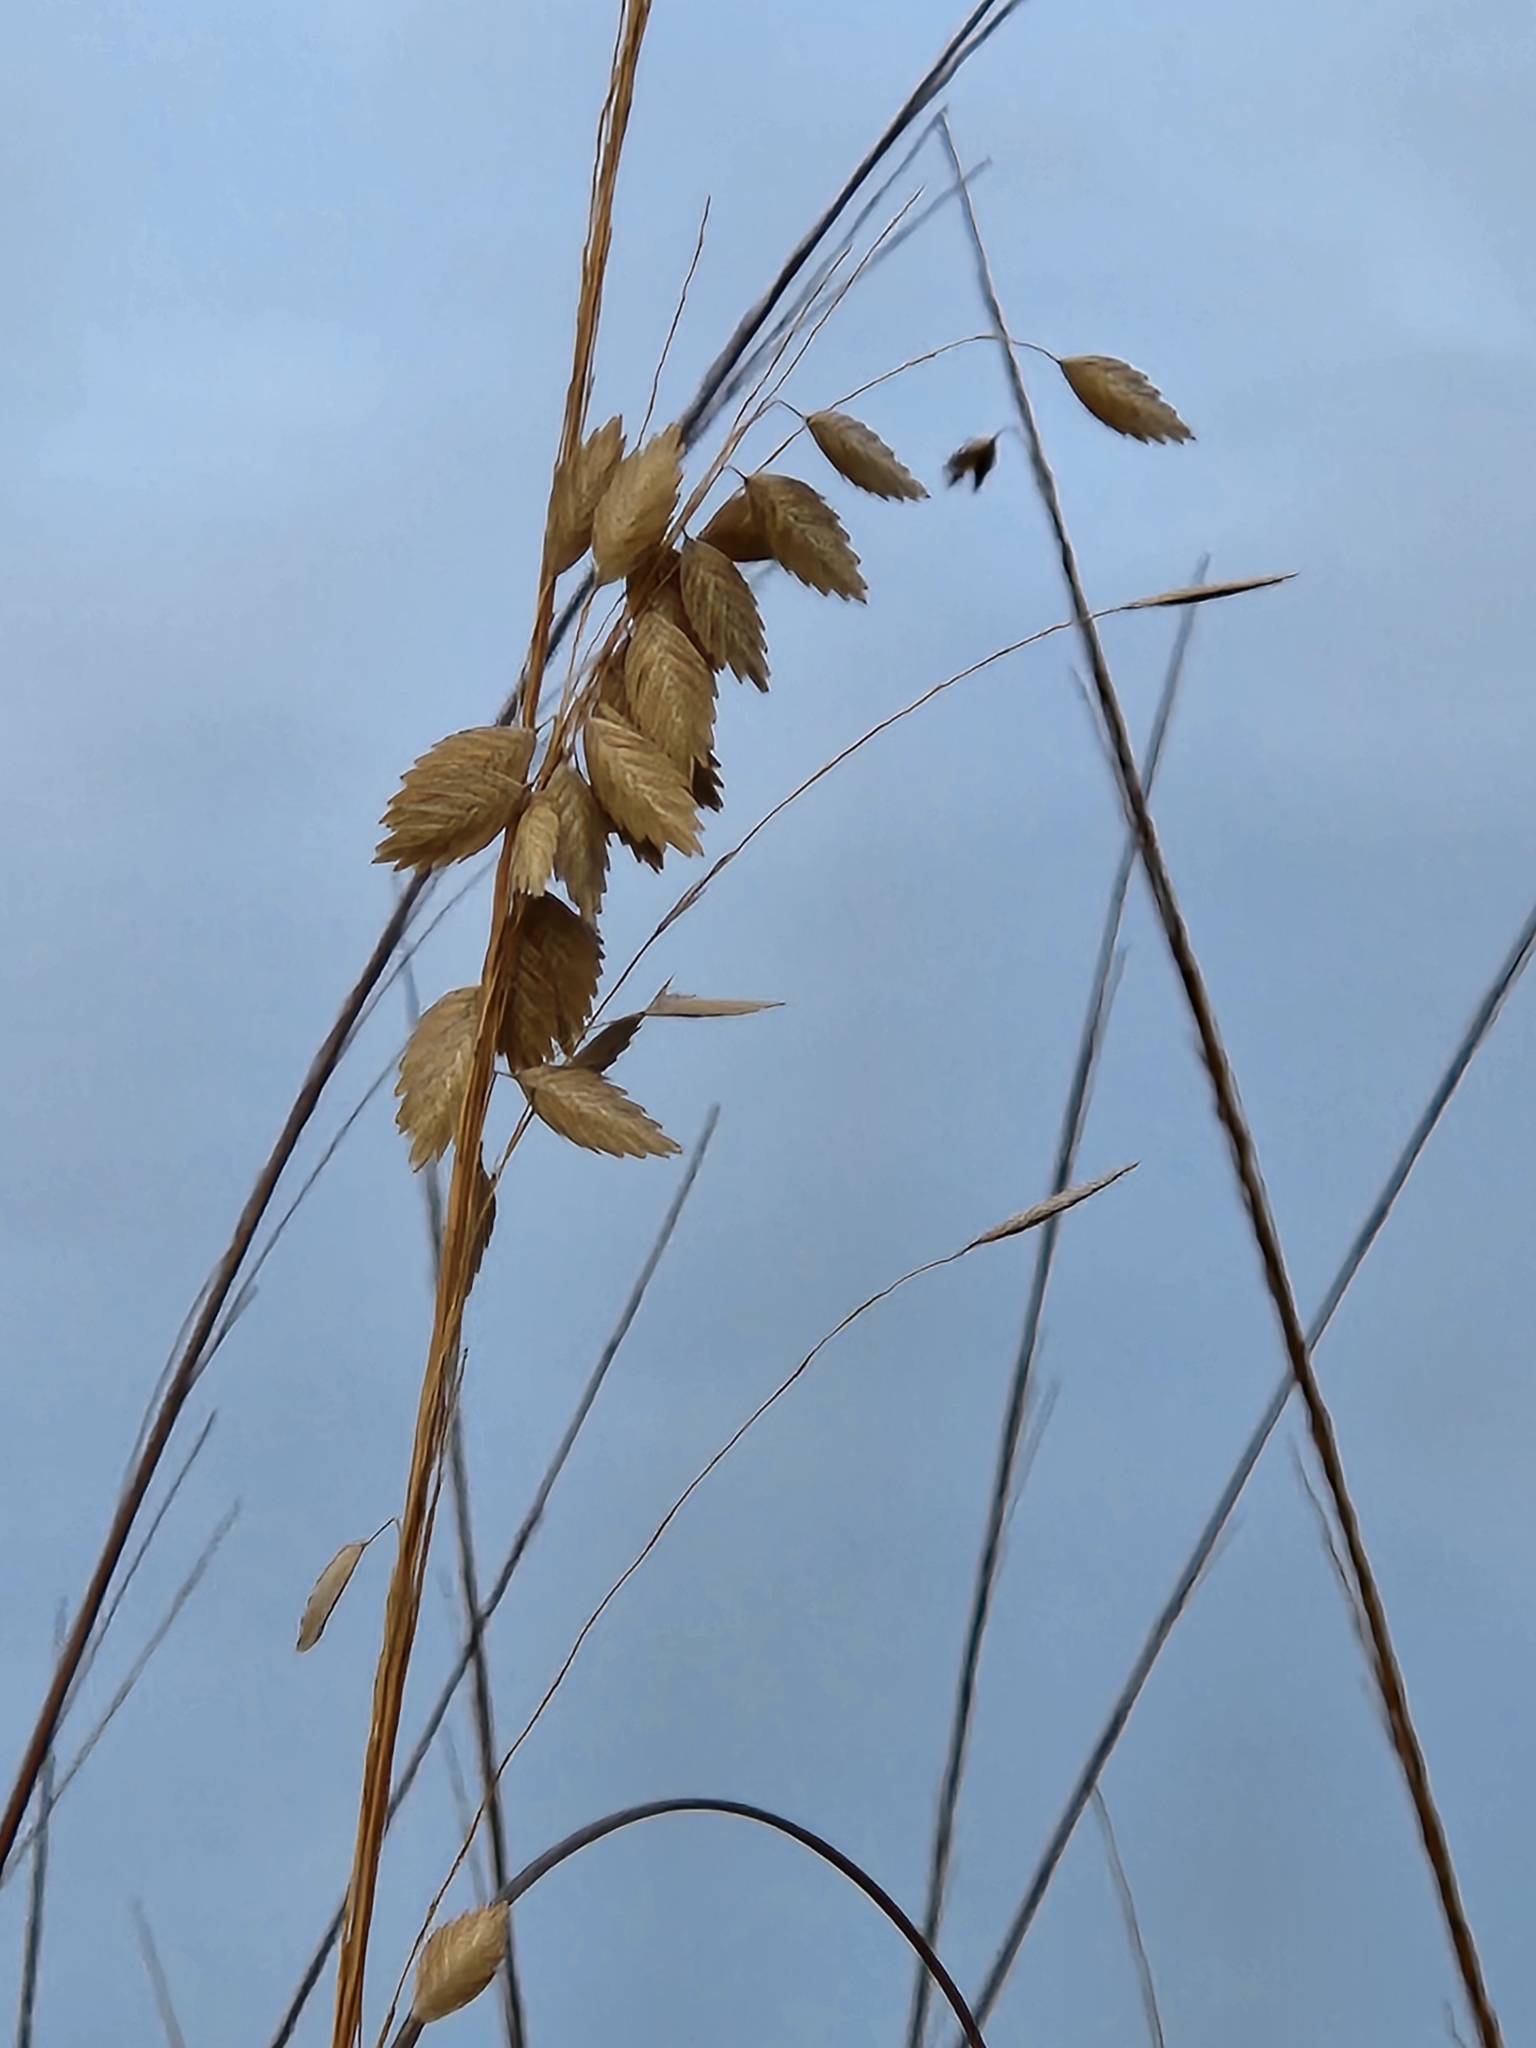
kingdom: Plantae
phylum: Tracheophyta
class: Liliopsida
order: Poales
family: Poaceae
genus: Uniola
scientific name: Uniola paniculata
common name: Seaside-oats
